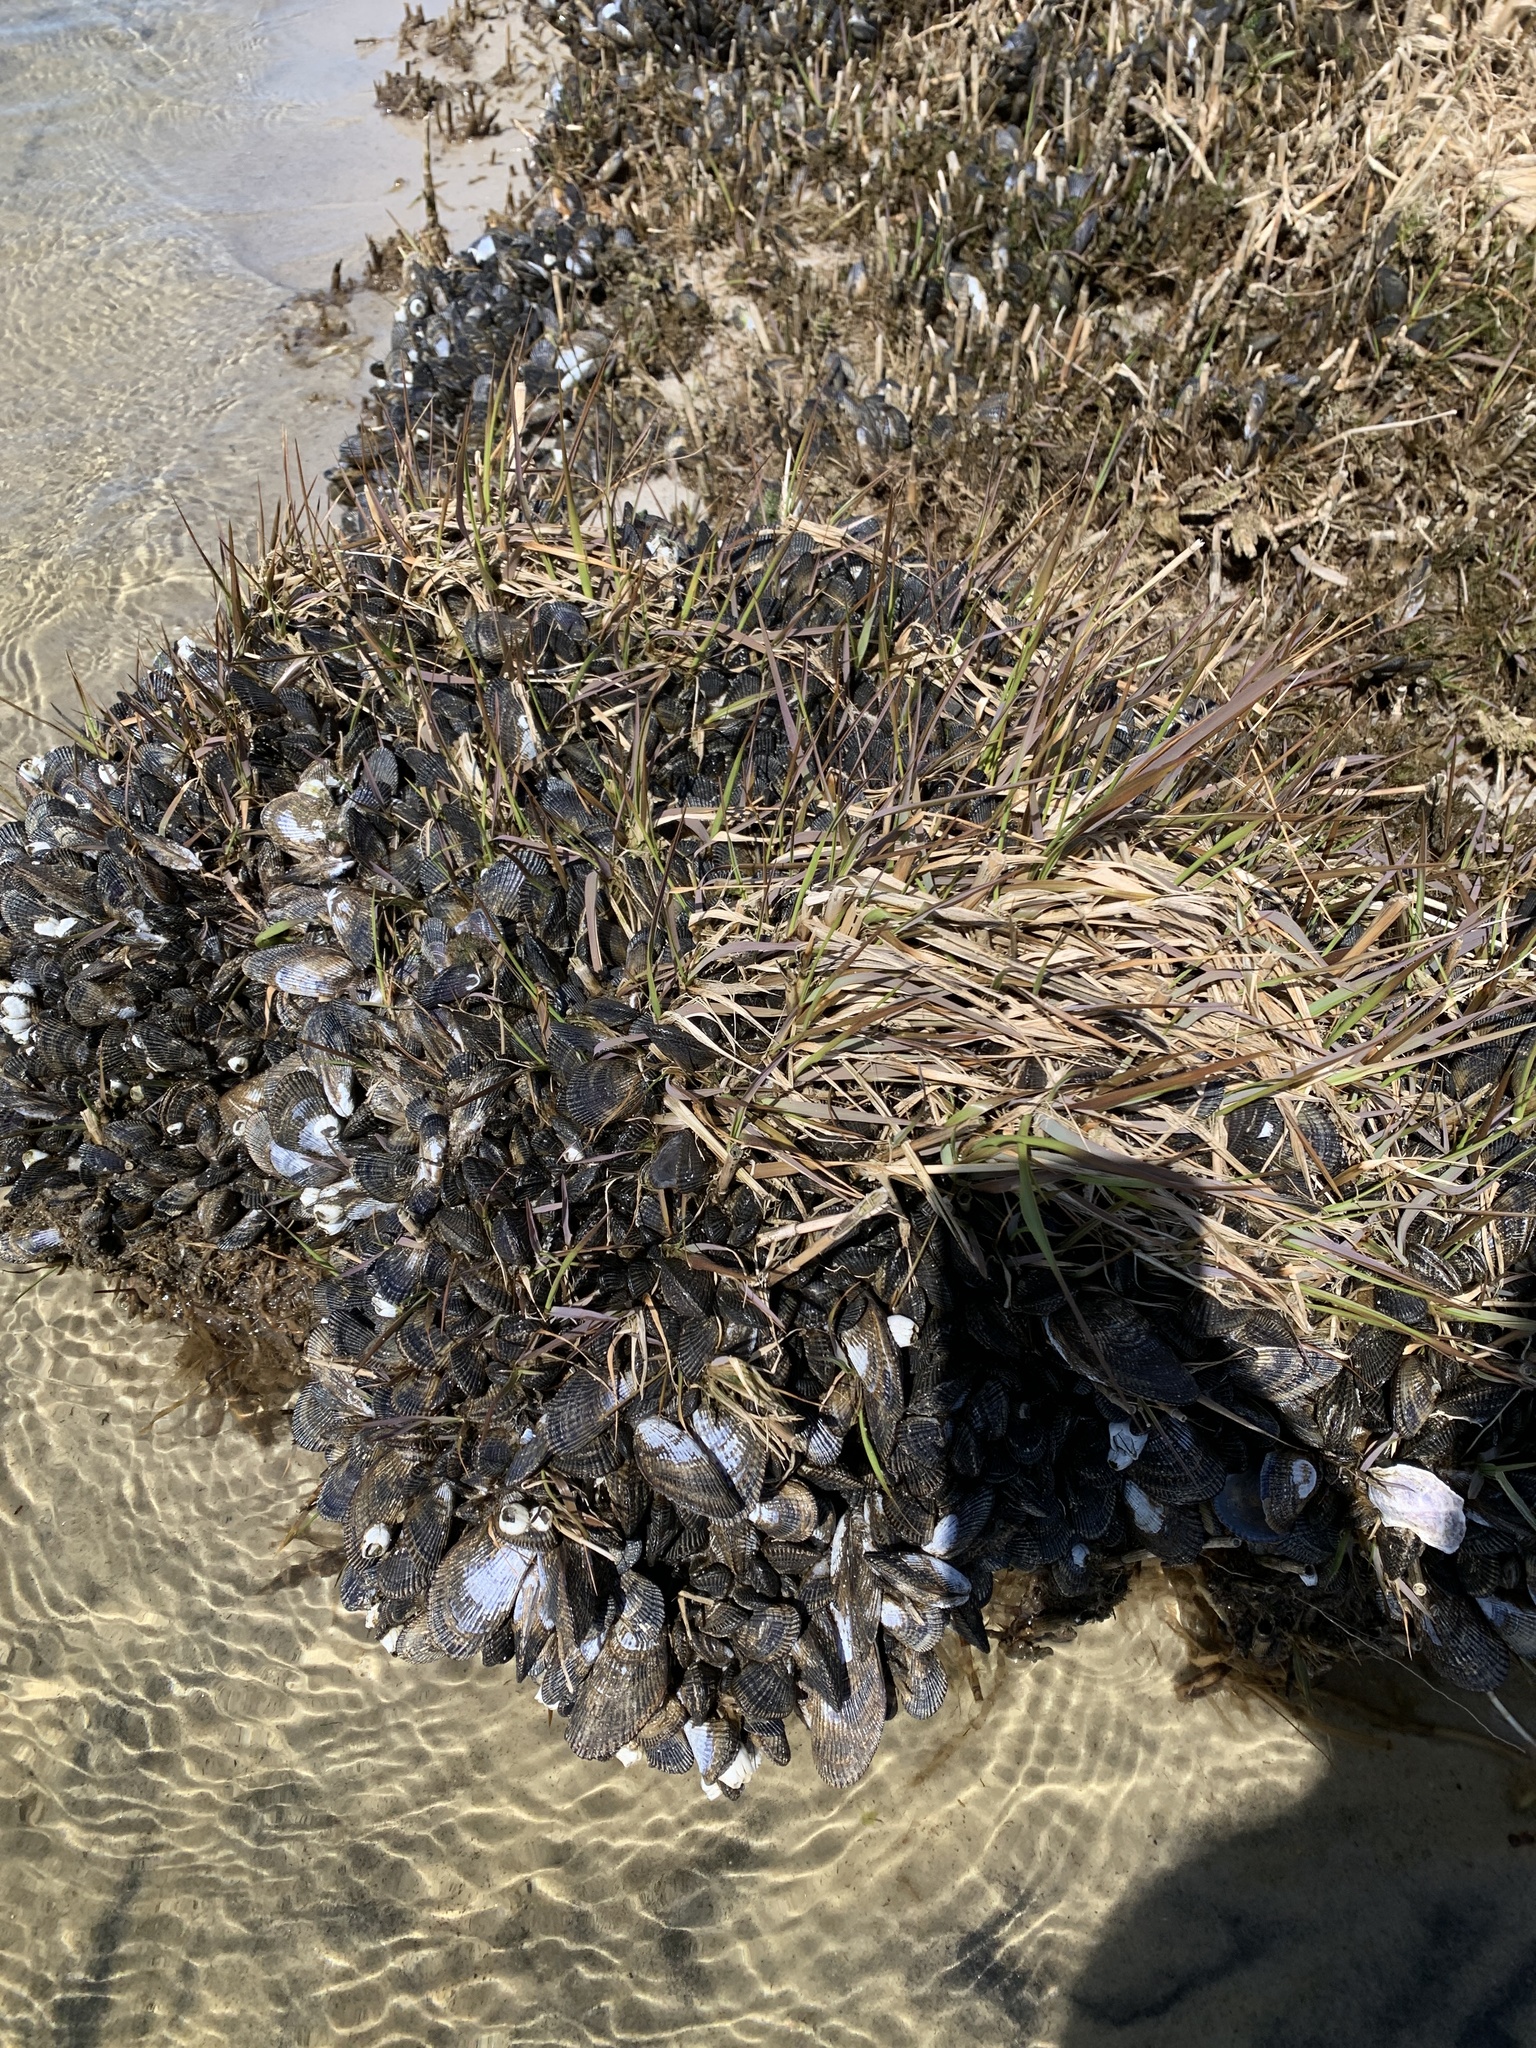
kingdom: Animalia
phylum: Mollusca
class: Bivalvia
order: Mytilida
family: Mytilidae
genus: Geukensia
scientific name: Geukensia demissa
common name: Ribbed mussel
